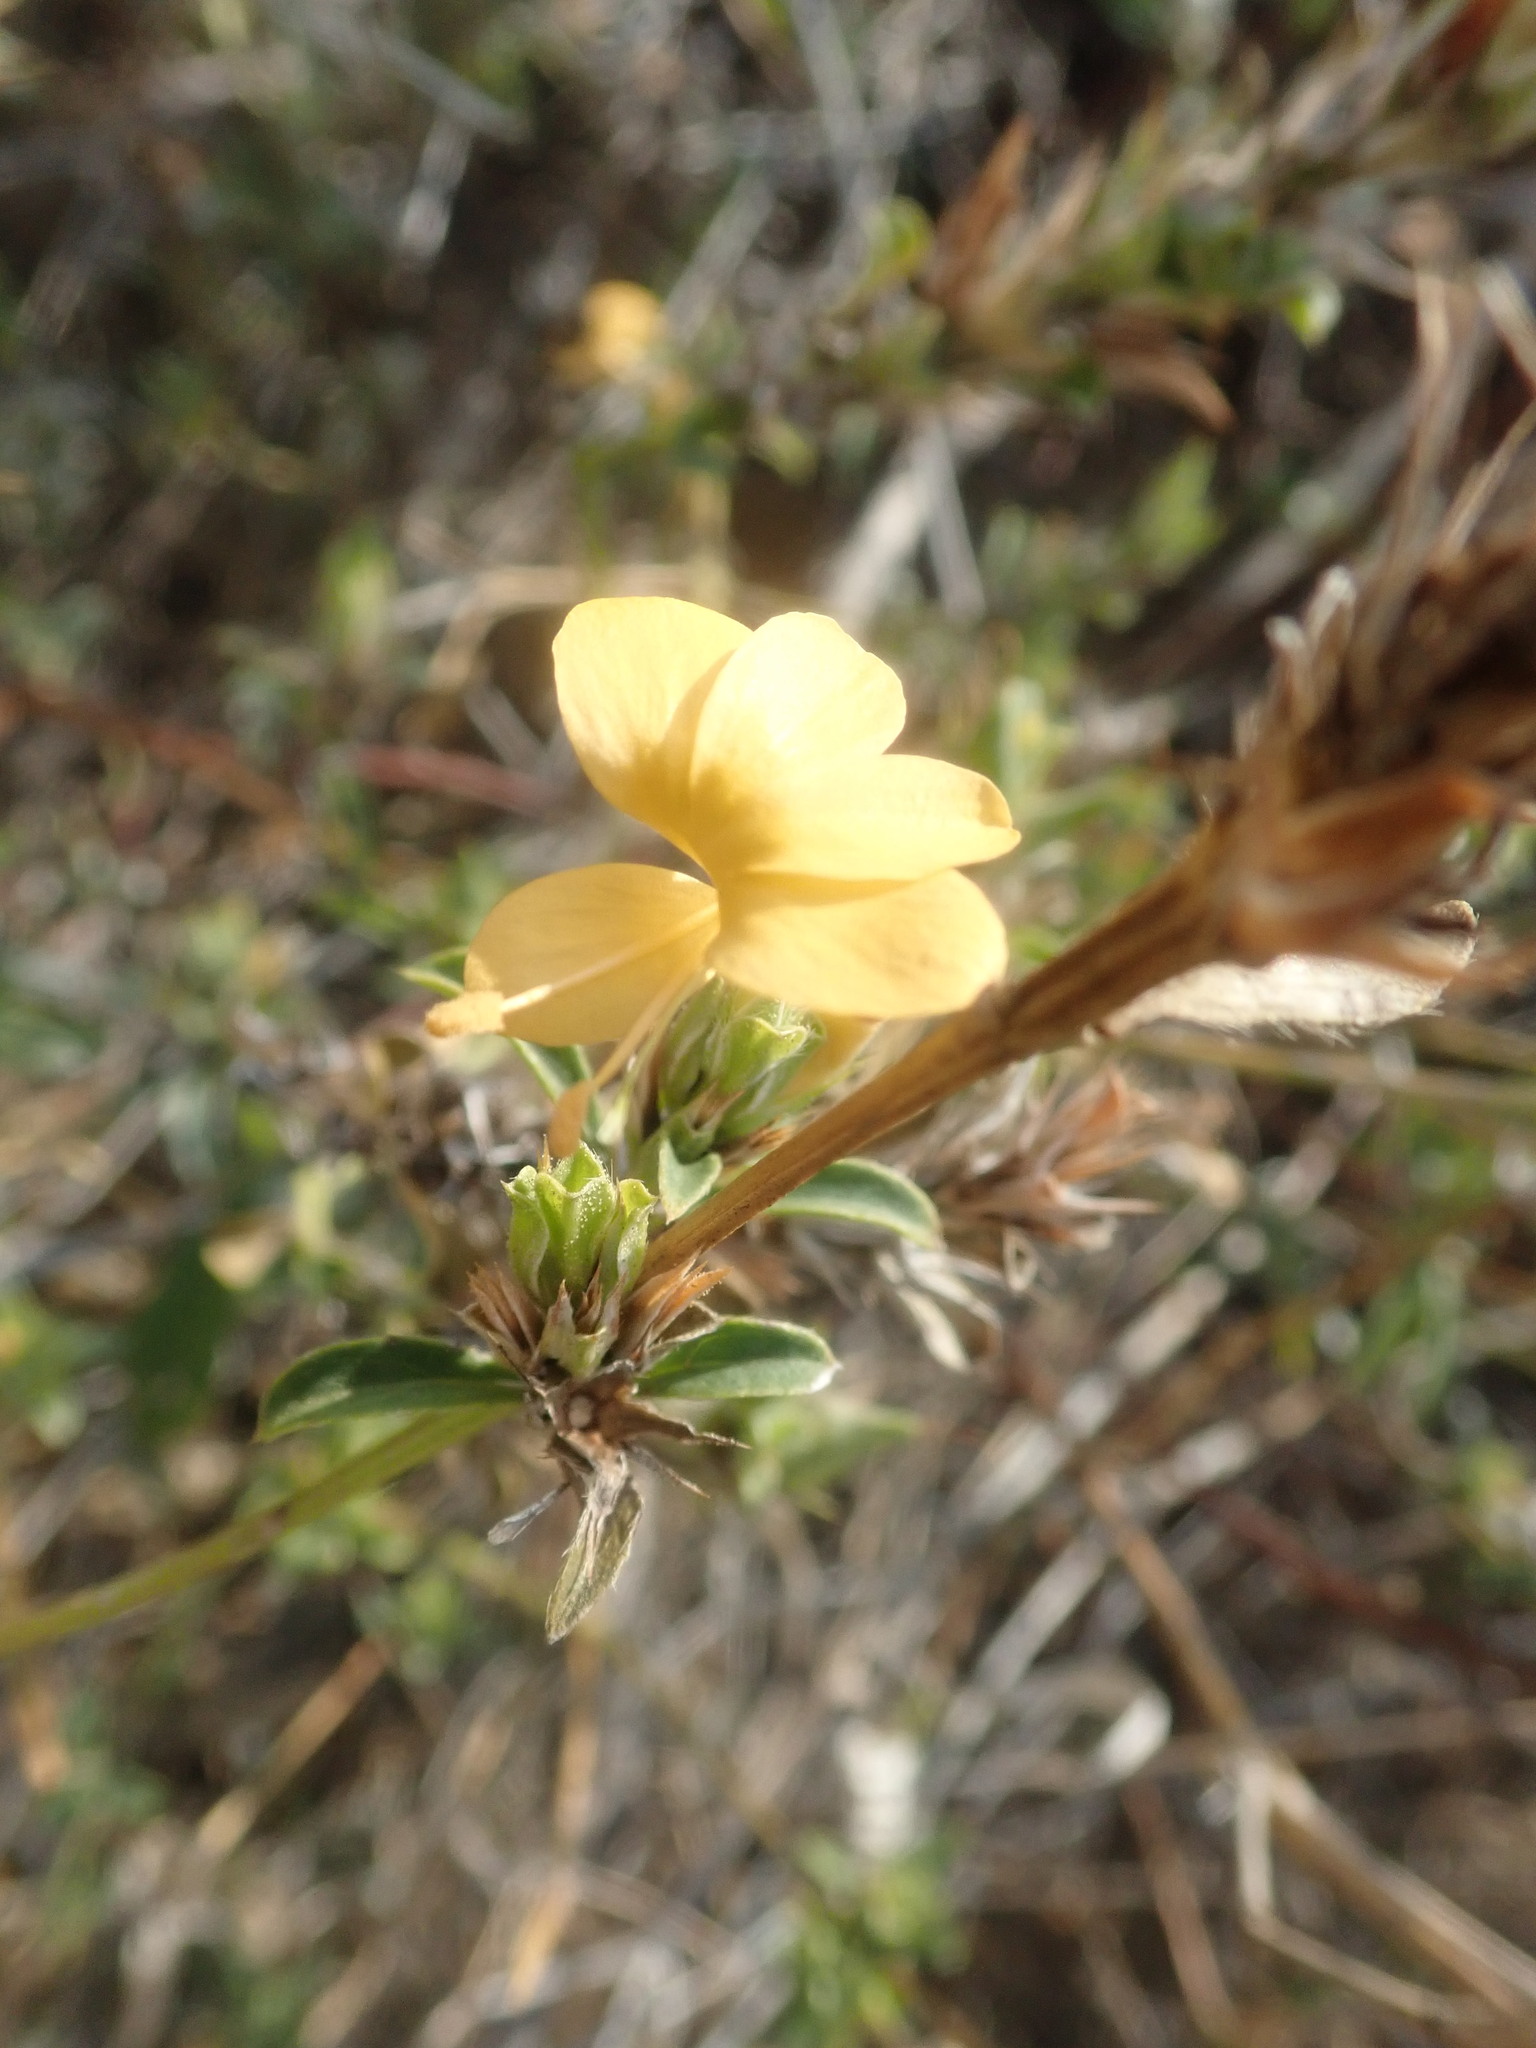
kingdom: Plantae
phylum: Tracheophyta
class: Magnoliopsida
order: Lamiales
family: Acanthaceae
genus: Barleria
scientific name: Barleria senensis
